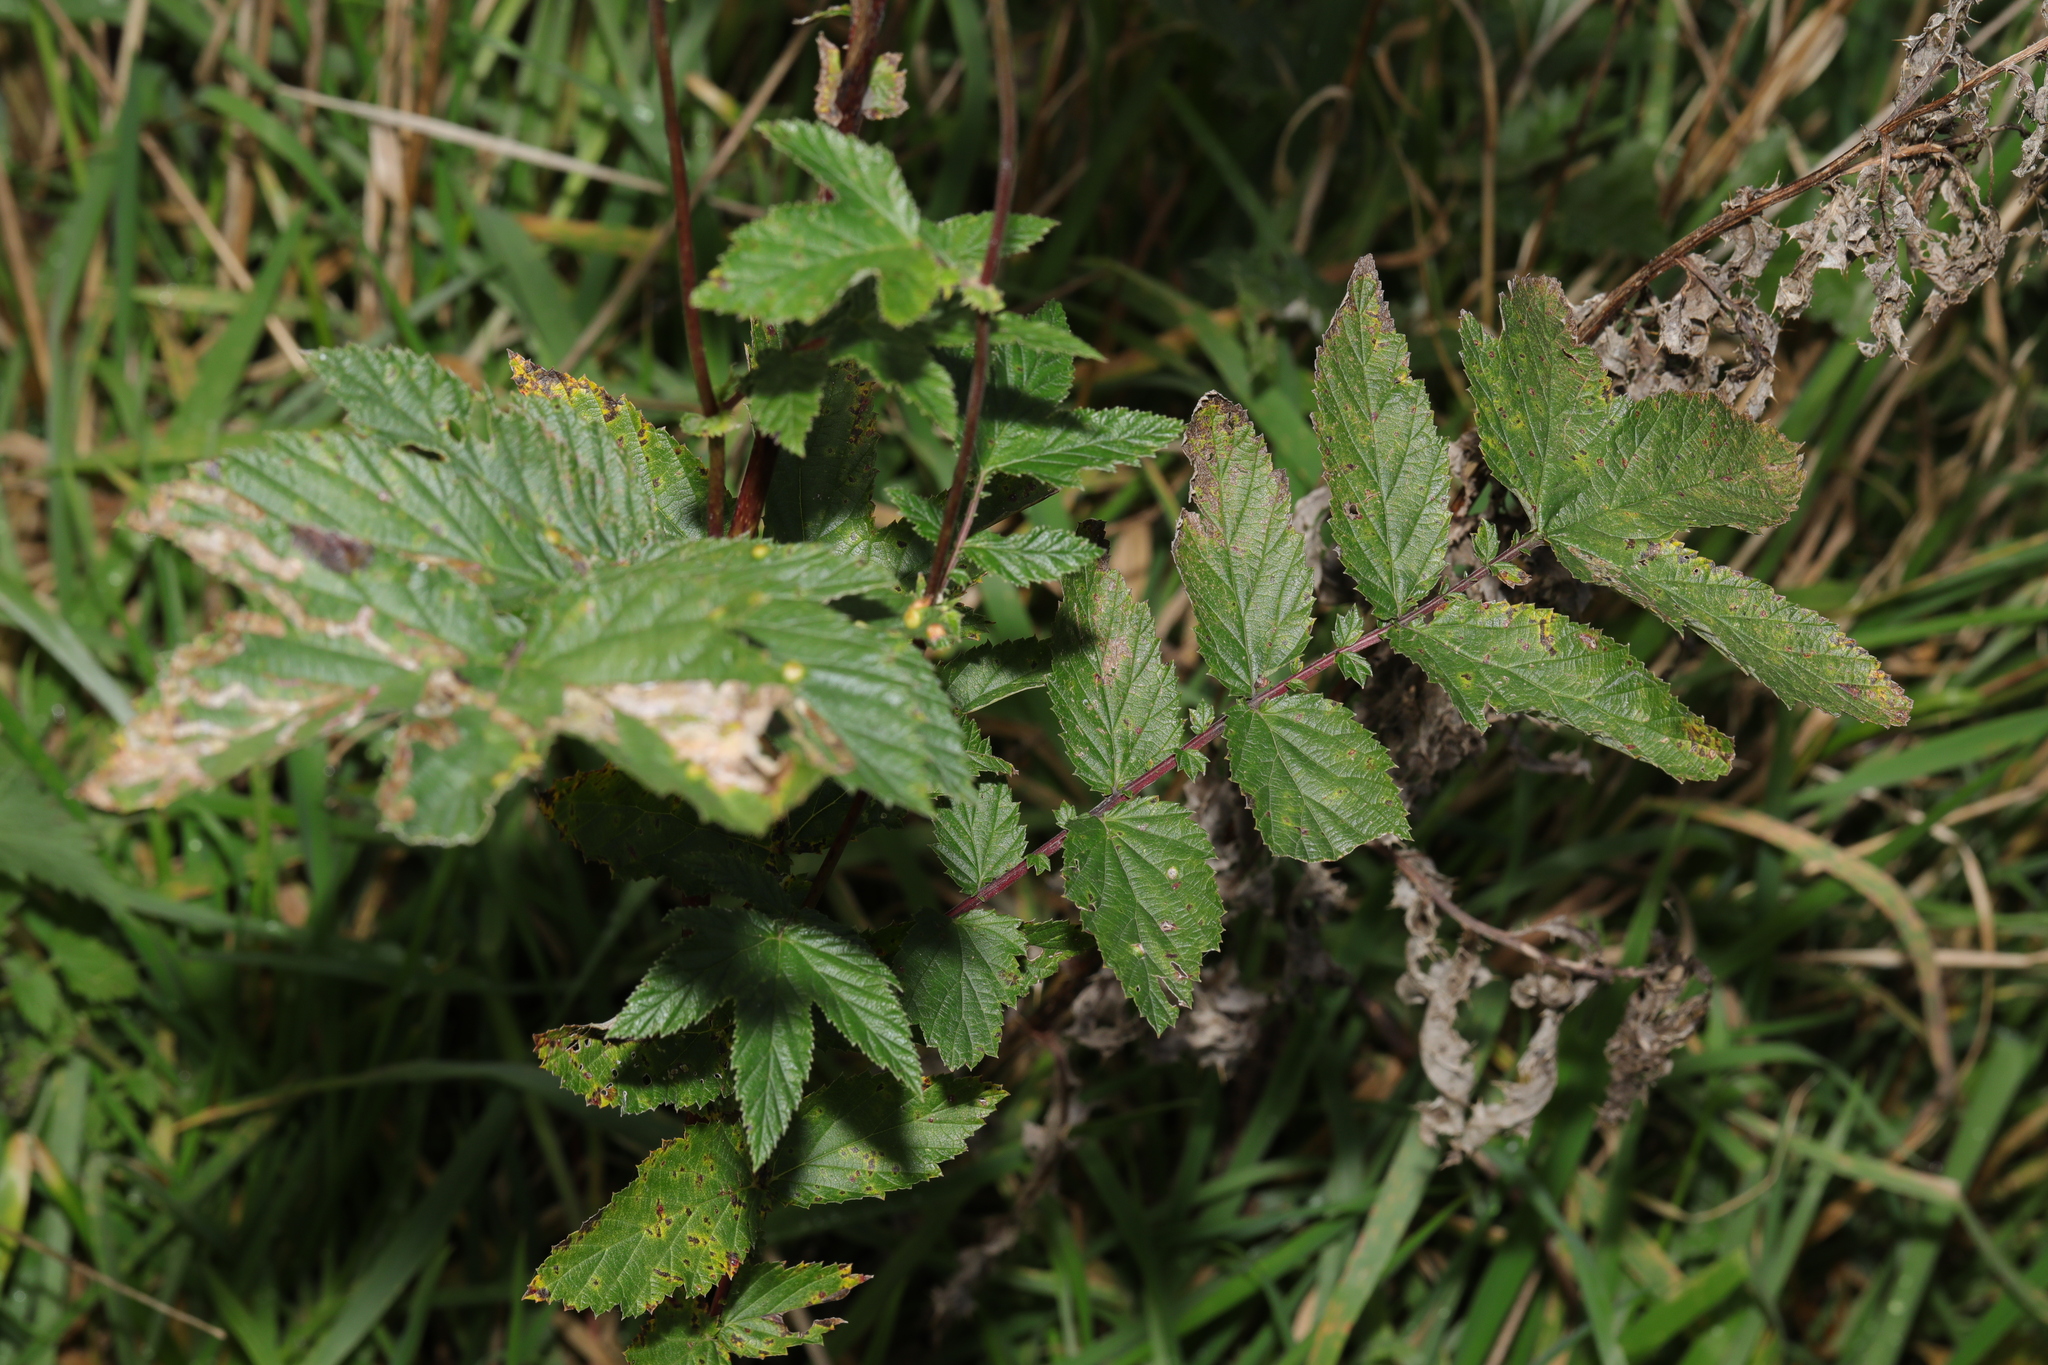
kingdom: Plantae
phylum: Tracheophyta
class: Magnoliopsida
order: Rosales
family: Rosaceae
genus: Filipendula
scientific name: Filipendula ulmaria
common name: Meadowsweet
